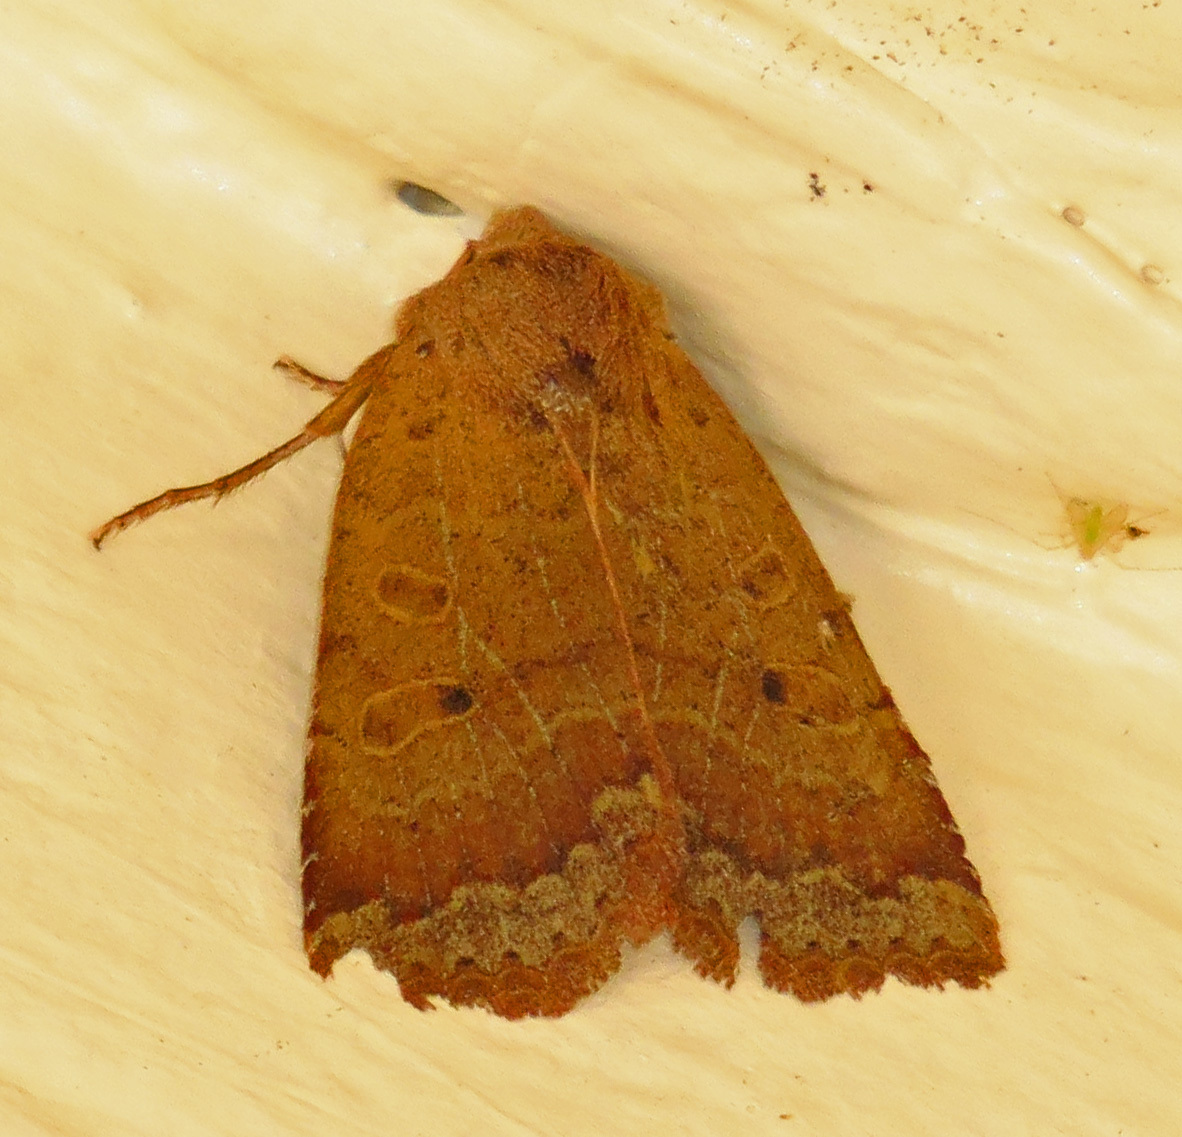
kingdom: Animalia
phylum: Arthropoda
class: Insecta
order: Lepidoptera
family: Noctuidae
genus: Sericaglaea
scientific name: Sericaglaea signata
